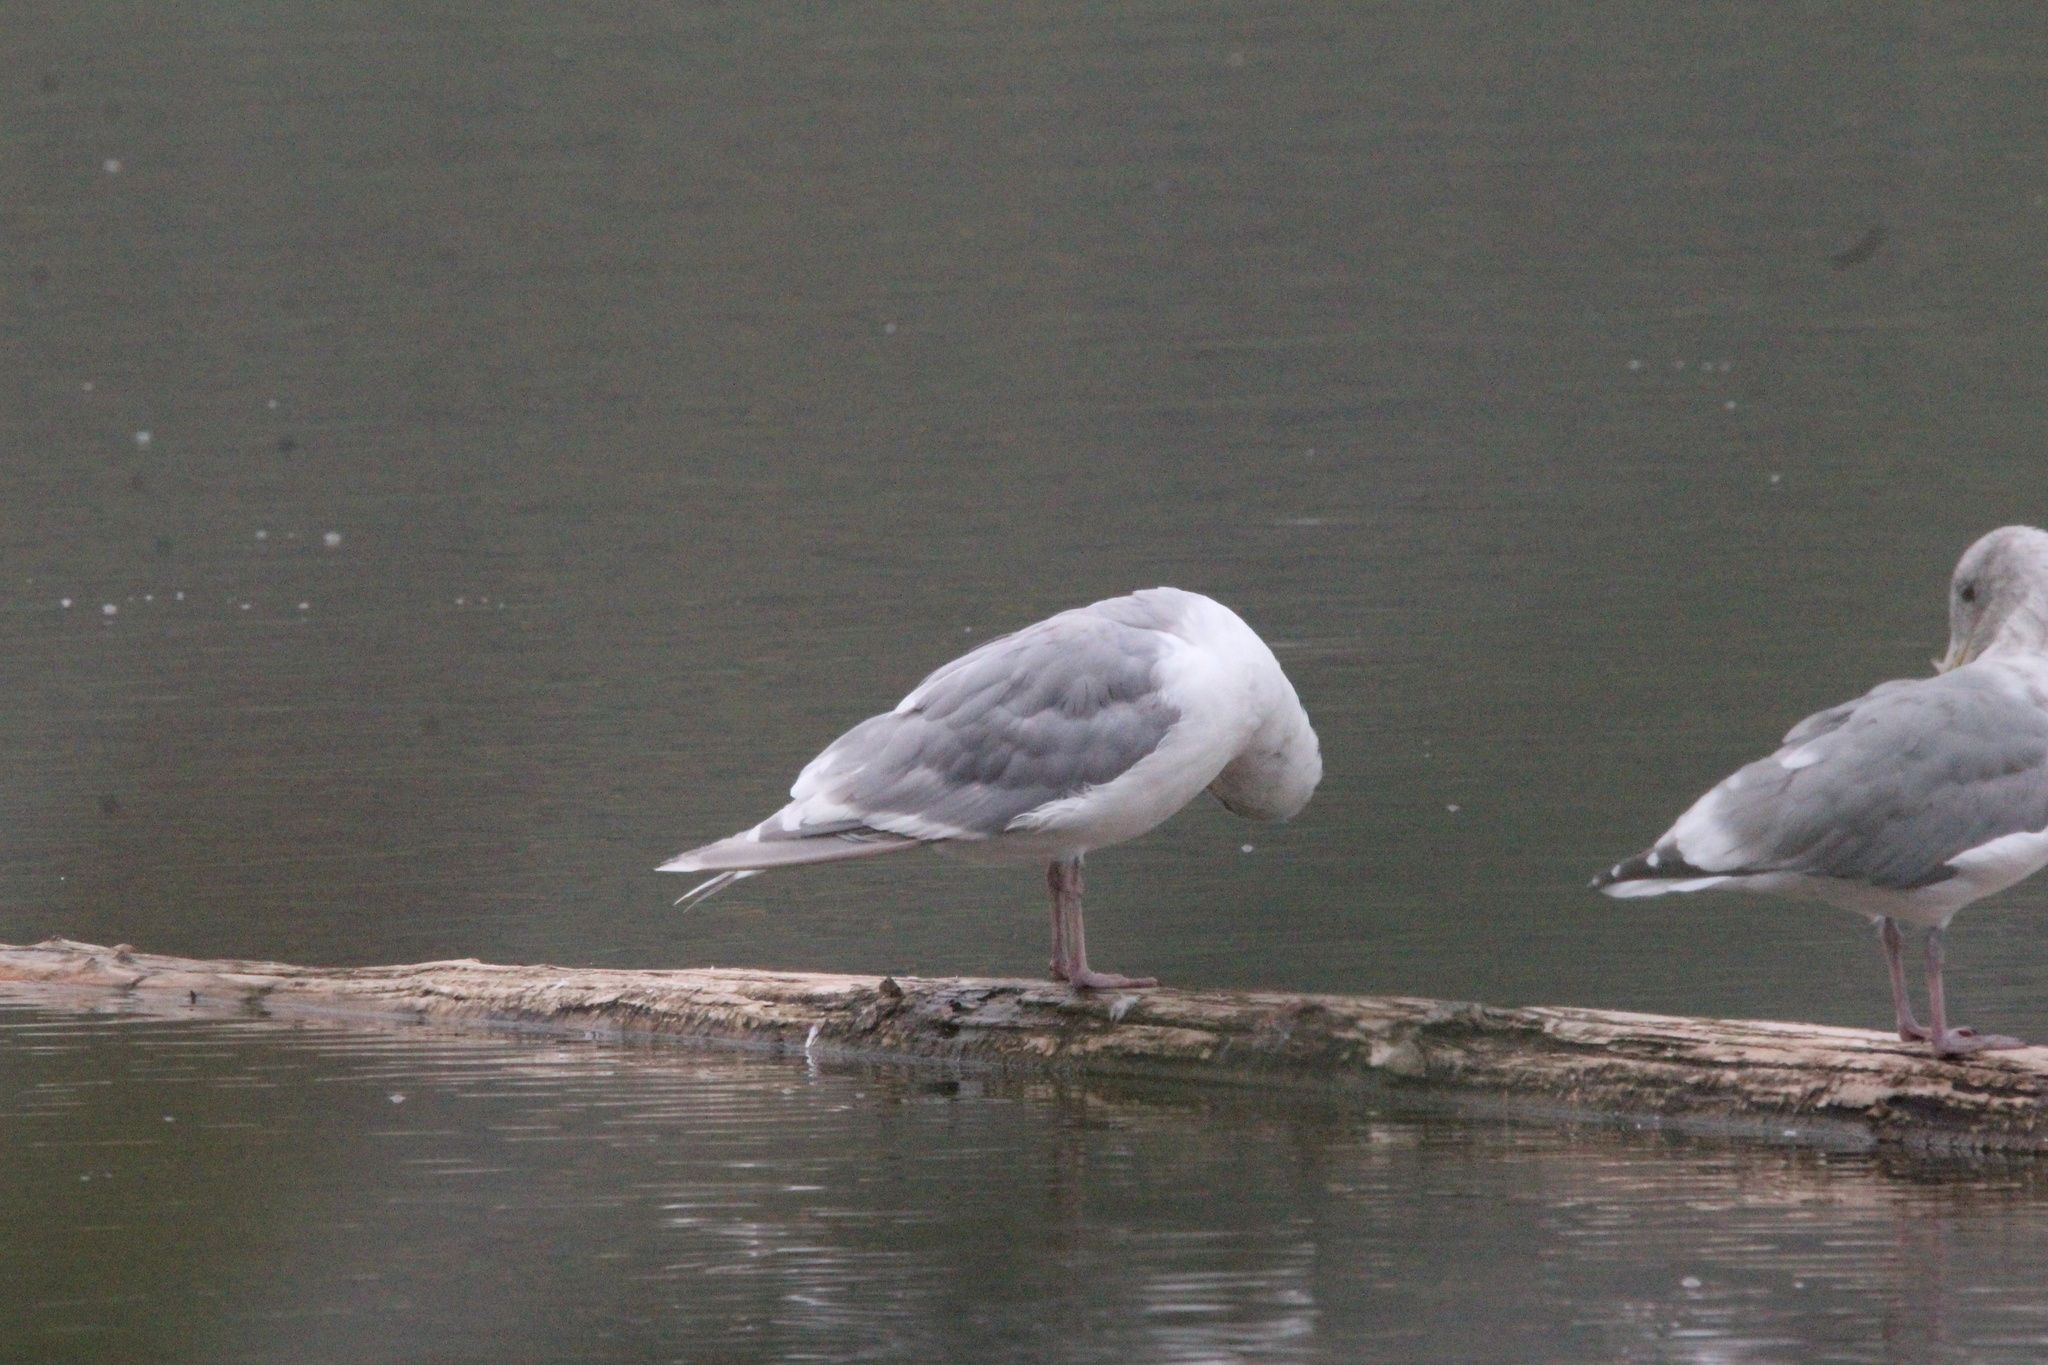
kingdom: Animalia
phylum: Chordata
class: Aves
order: Charadriiformes
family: Laridae
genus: Larus
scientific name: Larus
